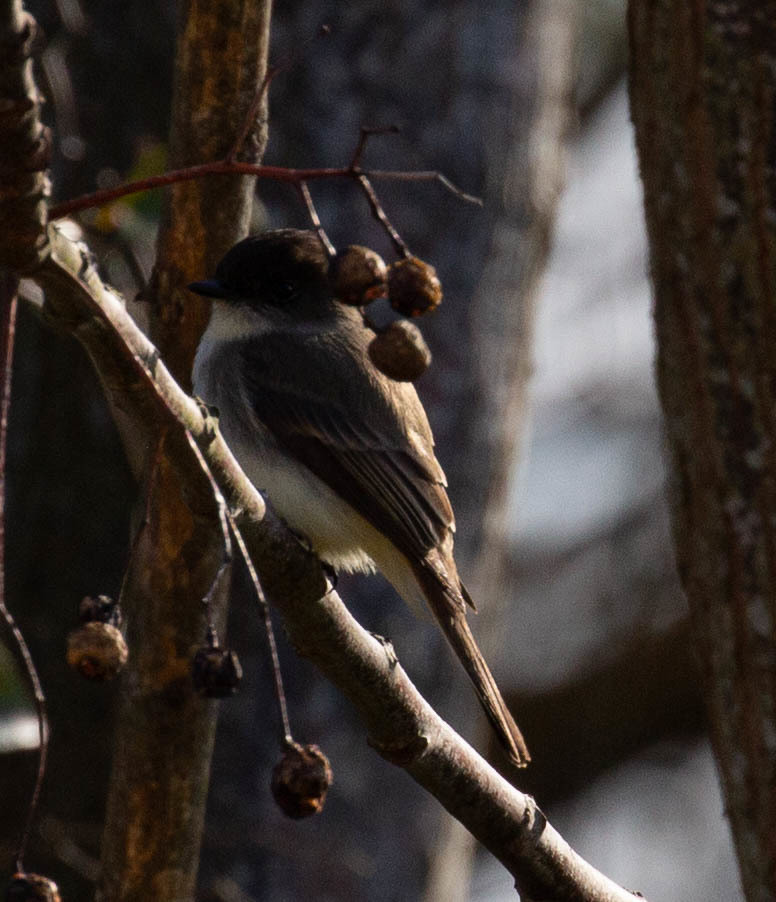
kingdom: Animalia
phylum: Chordata
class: Aves
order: Passeriformes
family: Tyrannidae
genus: Sayornis
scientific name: Sayornis phoebe
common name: Eastern phoebe
